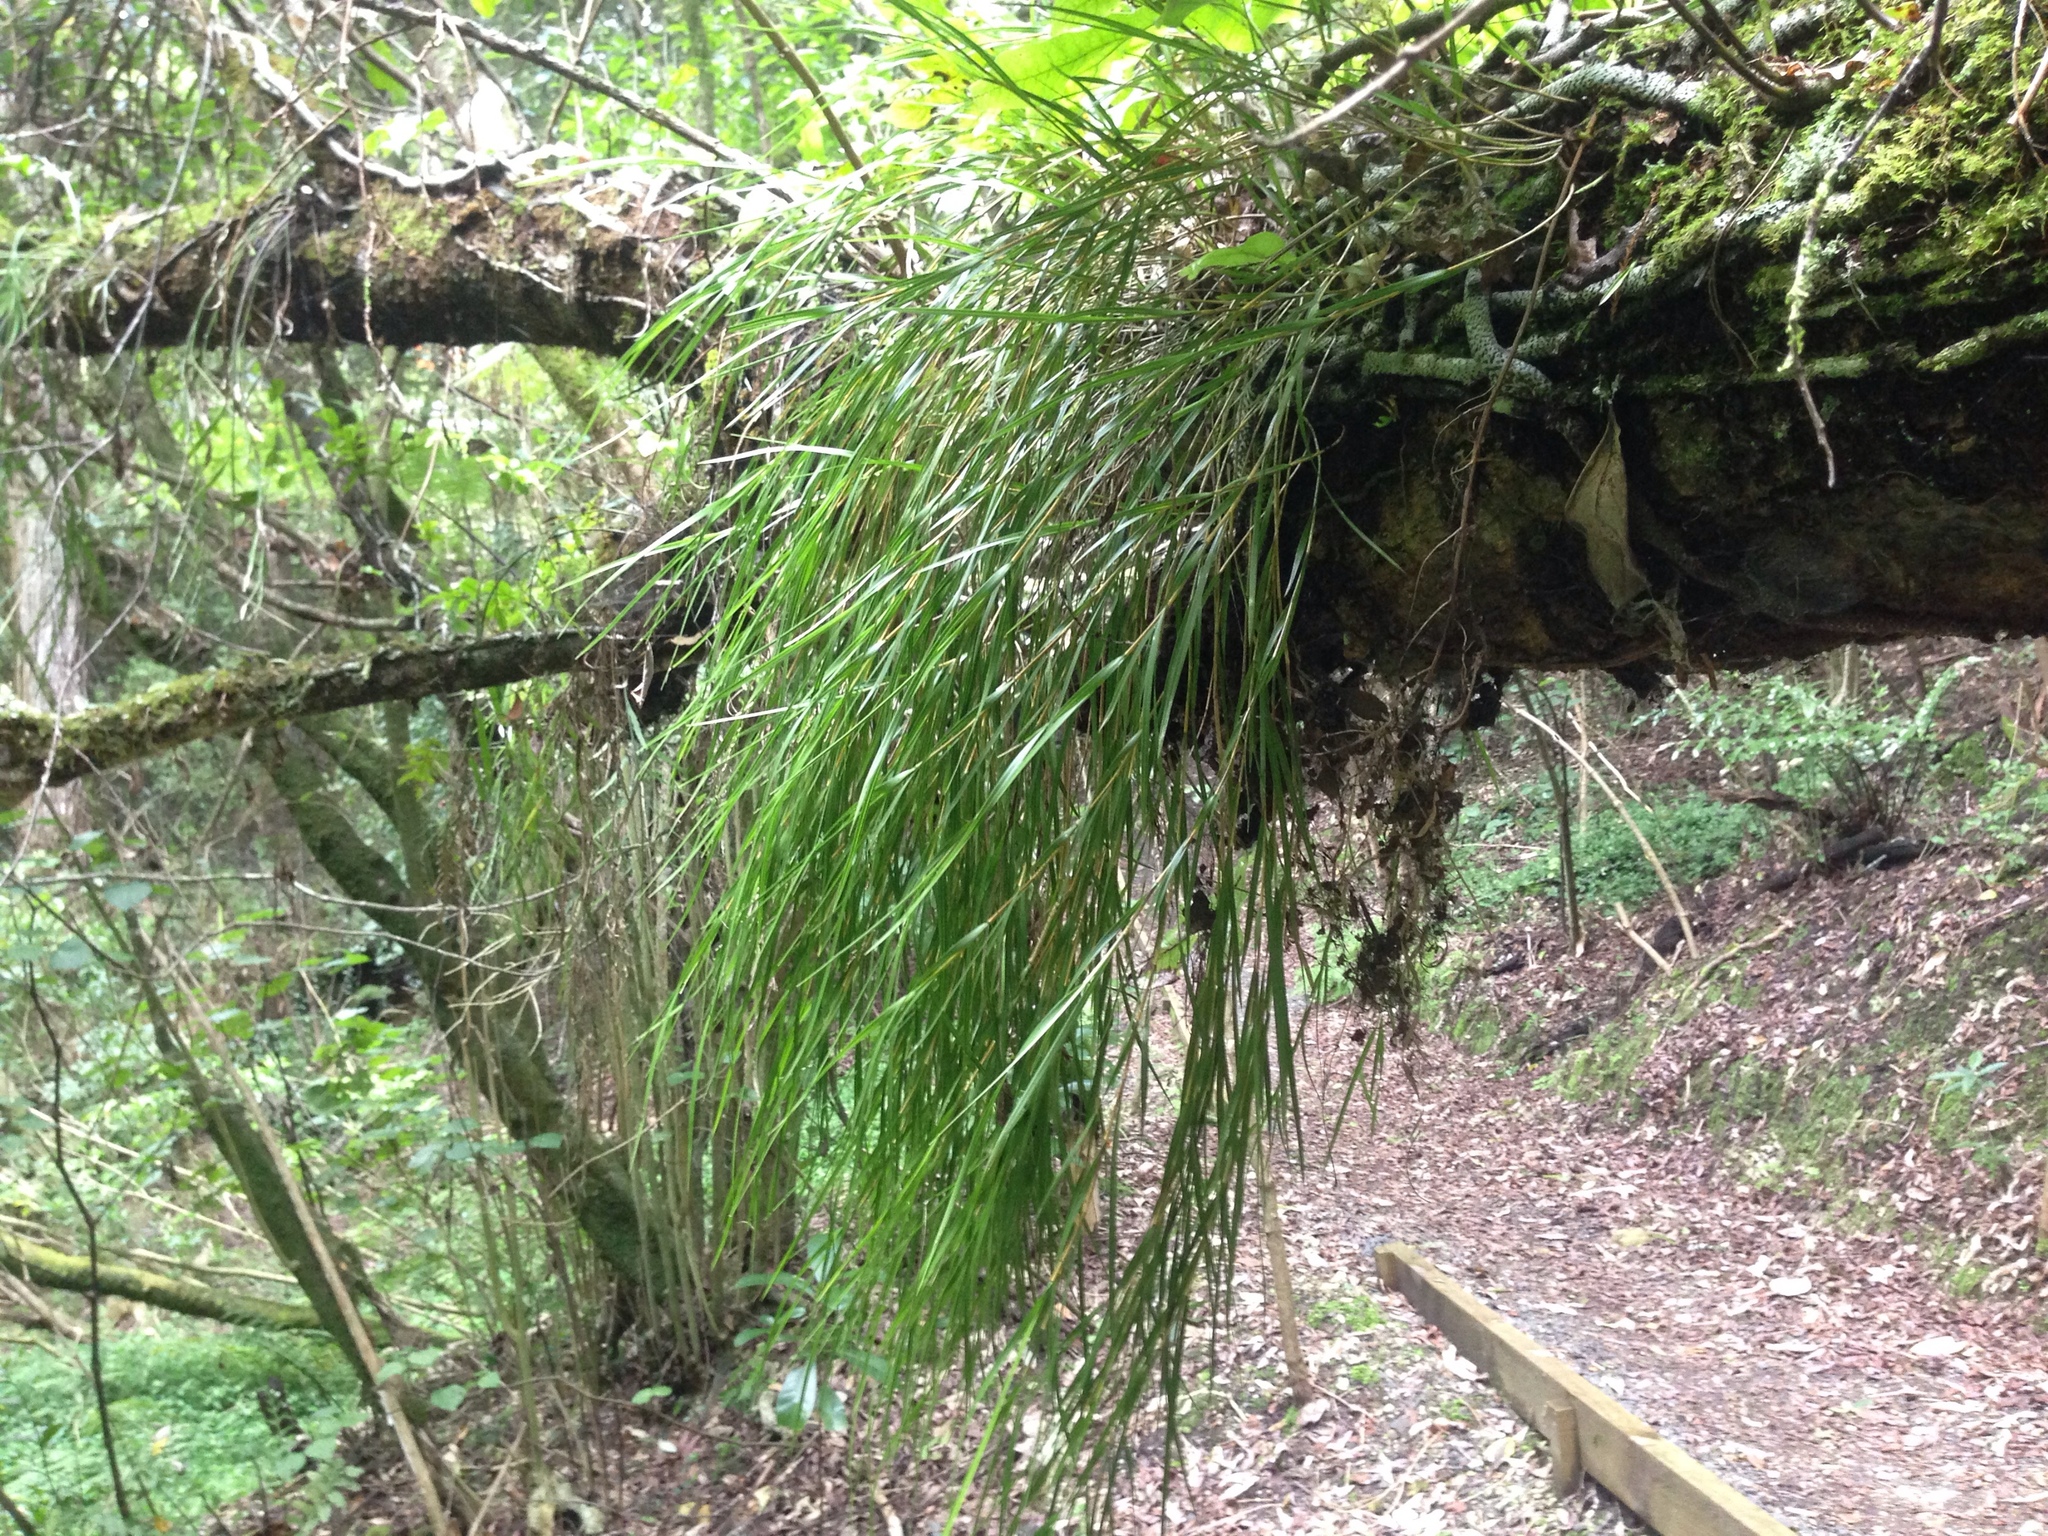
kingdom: Plantae
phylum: Tracheophyta
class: Liliopsida
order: Asparagales
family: Orchidaceae
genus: Earina
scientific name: Earina mucronata
